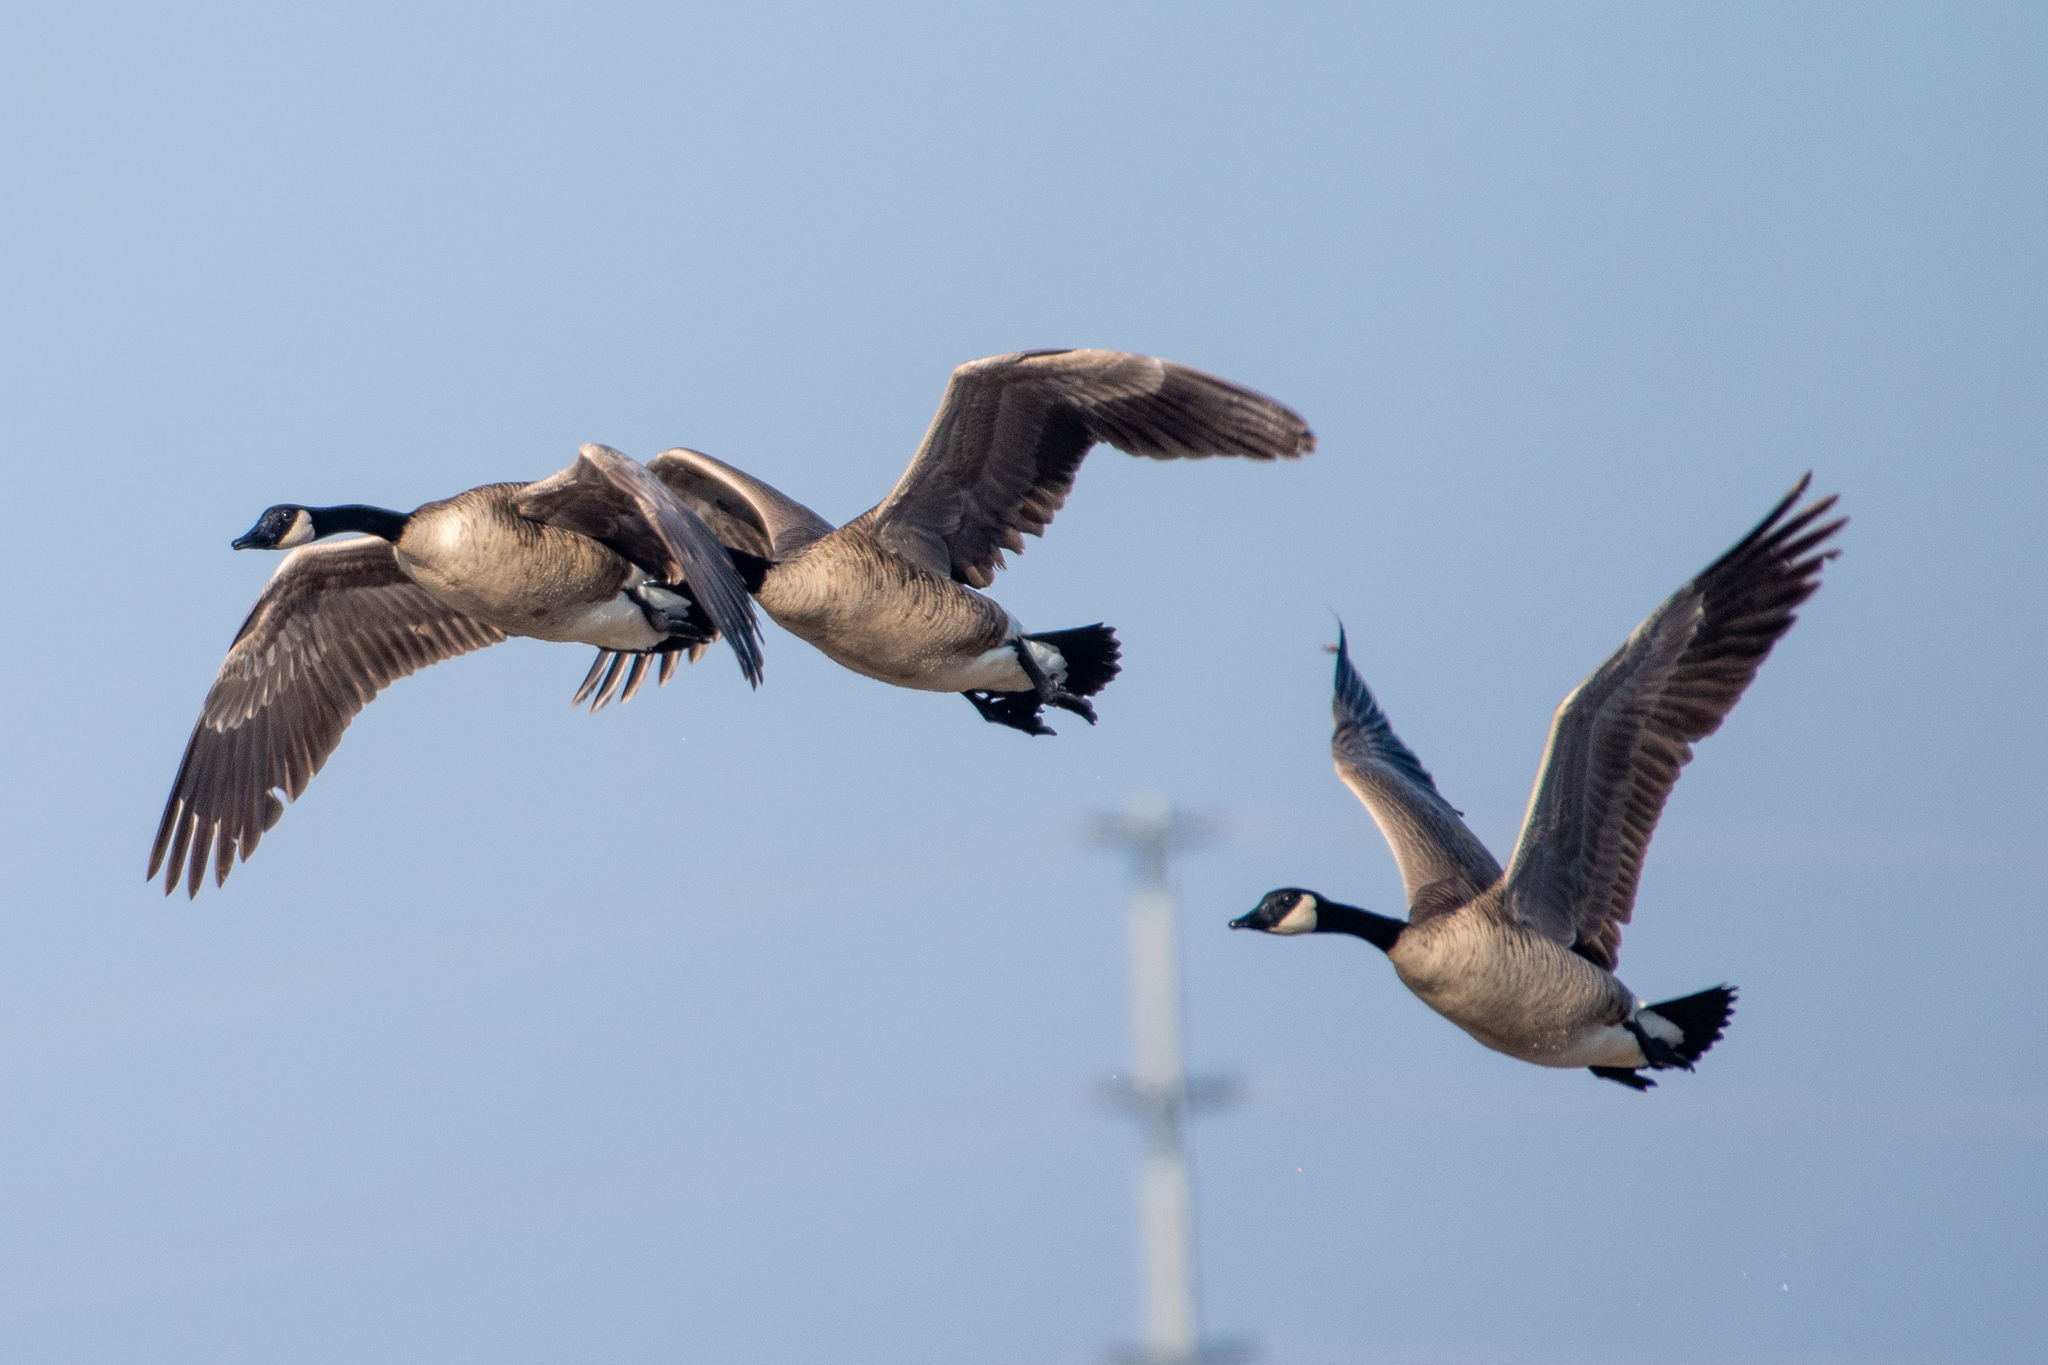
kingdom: Animalia
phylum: Chordata
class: Aves
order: Anseriformes
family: Anatidae
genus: Branta
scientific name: Branta canadensis
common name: Canada goose
